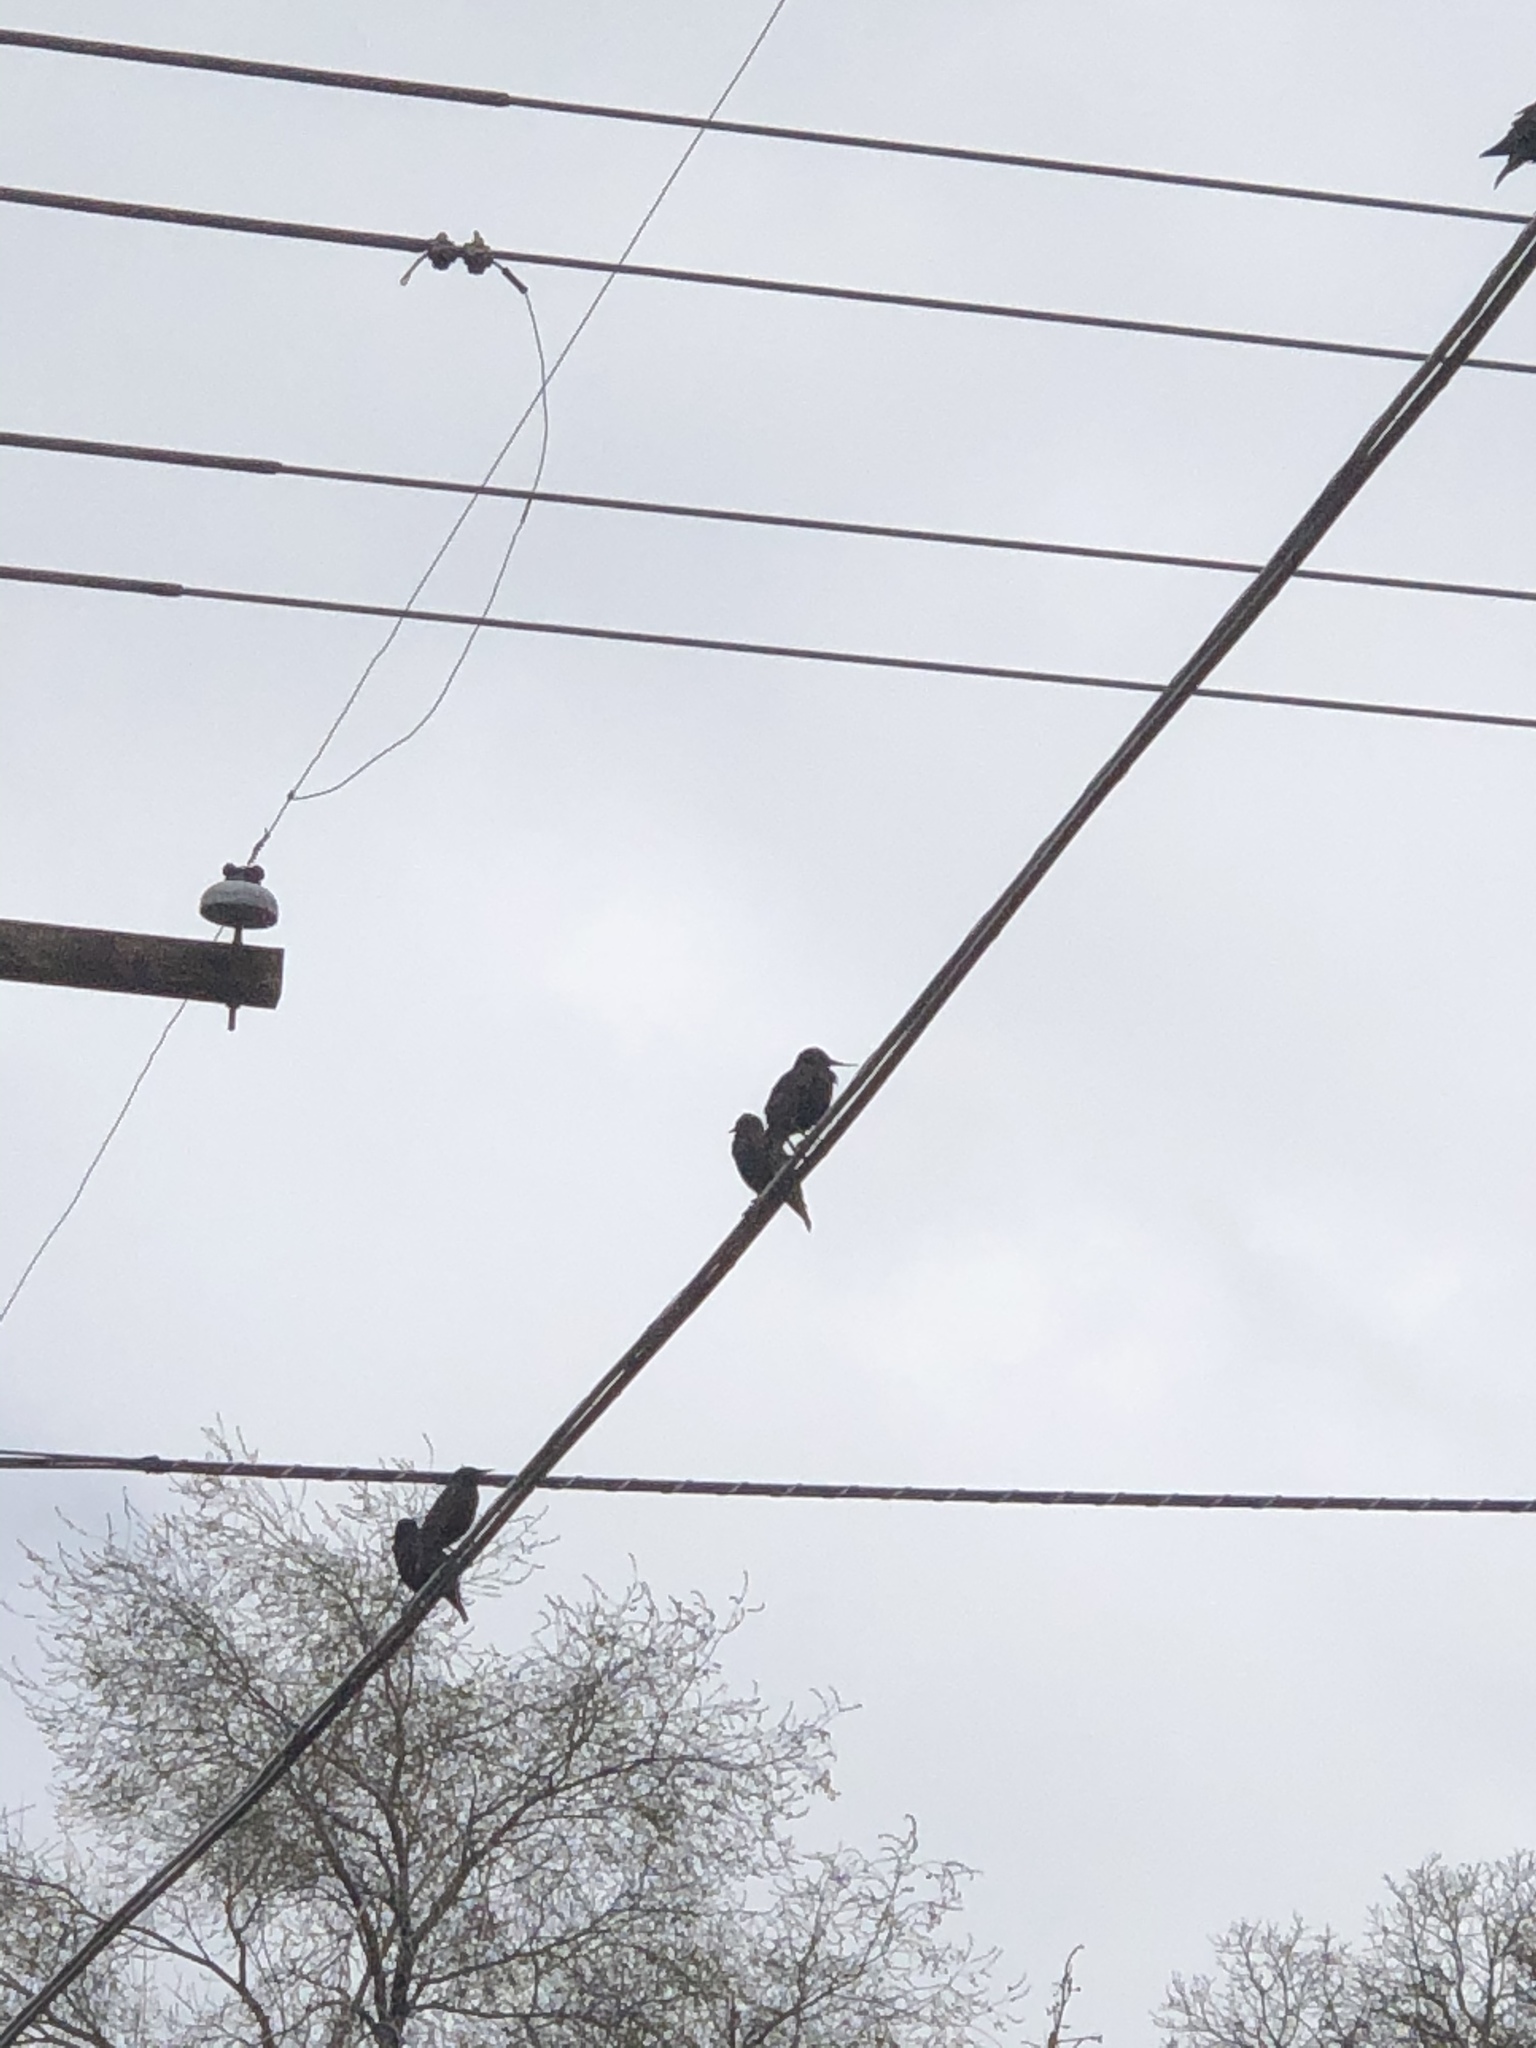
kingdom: Animalia
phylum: Chordata
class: Aves
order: Passeriformes
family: Sturnidae
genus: Sturnus
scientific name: Sturnus vulgaris
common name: Common starling
